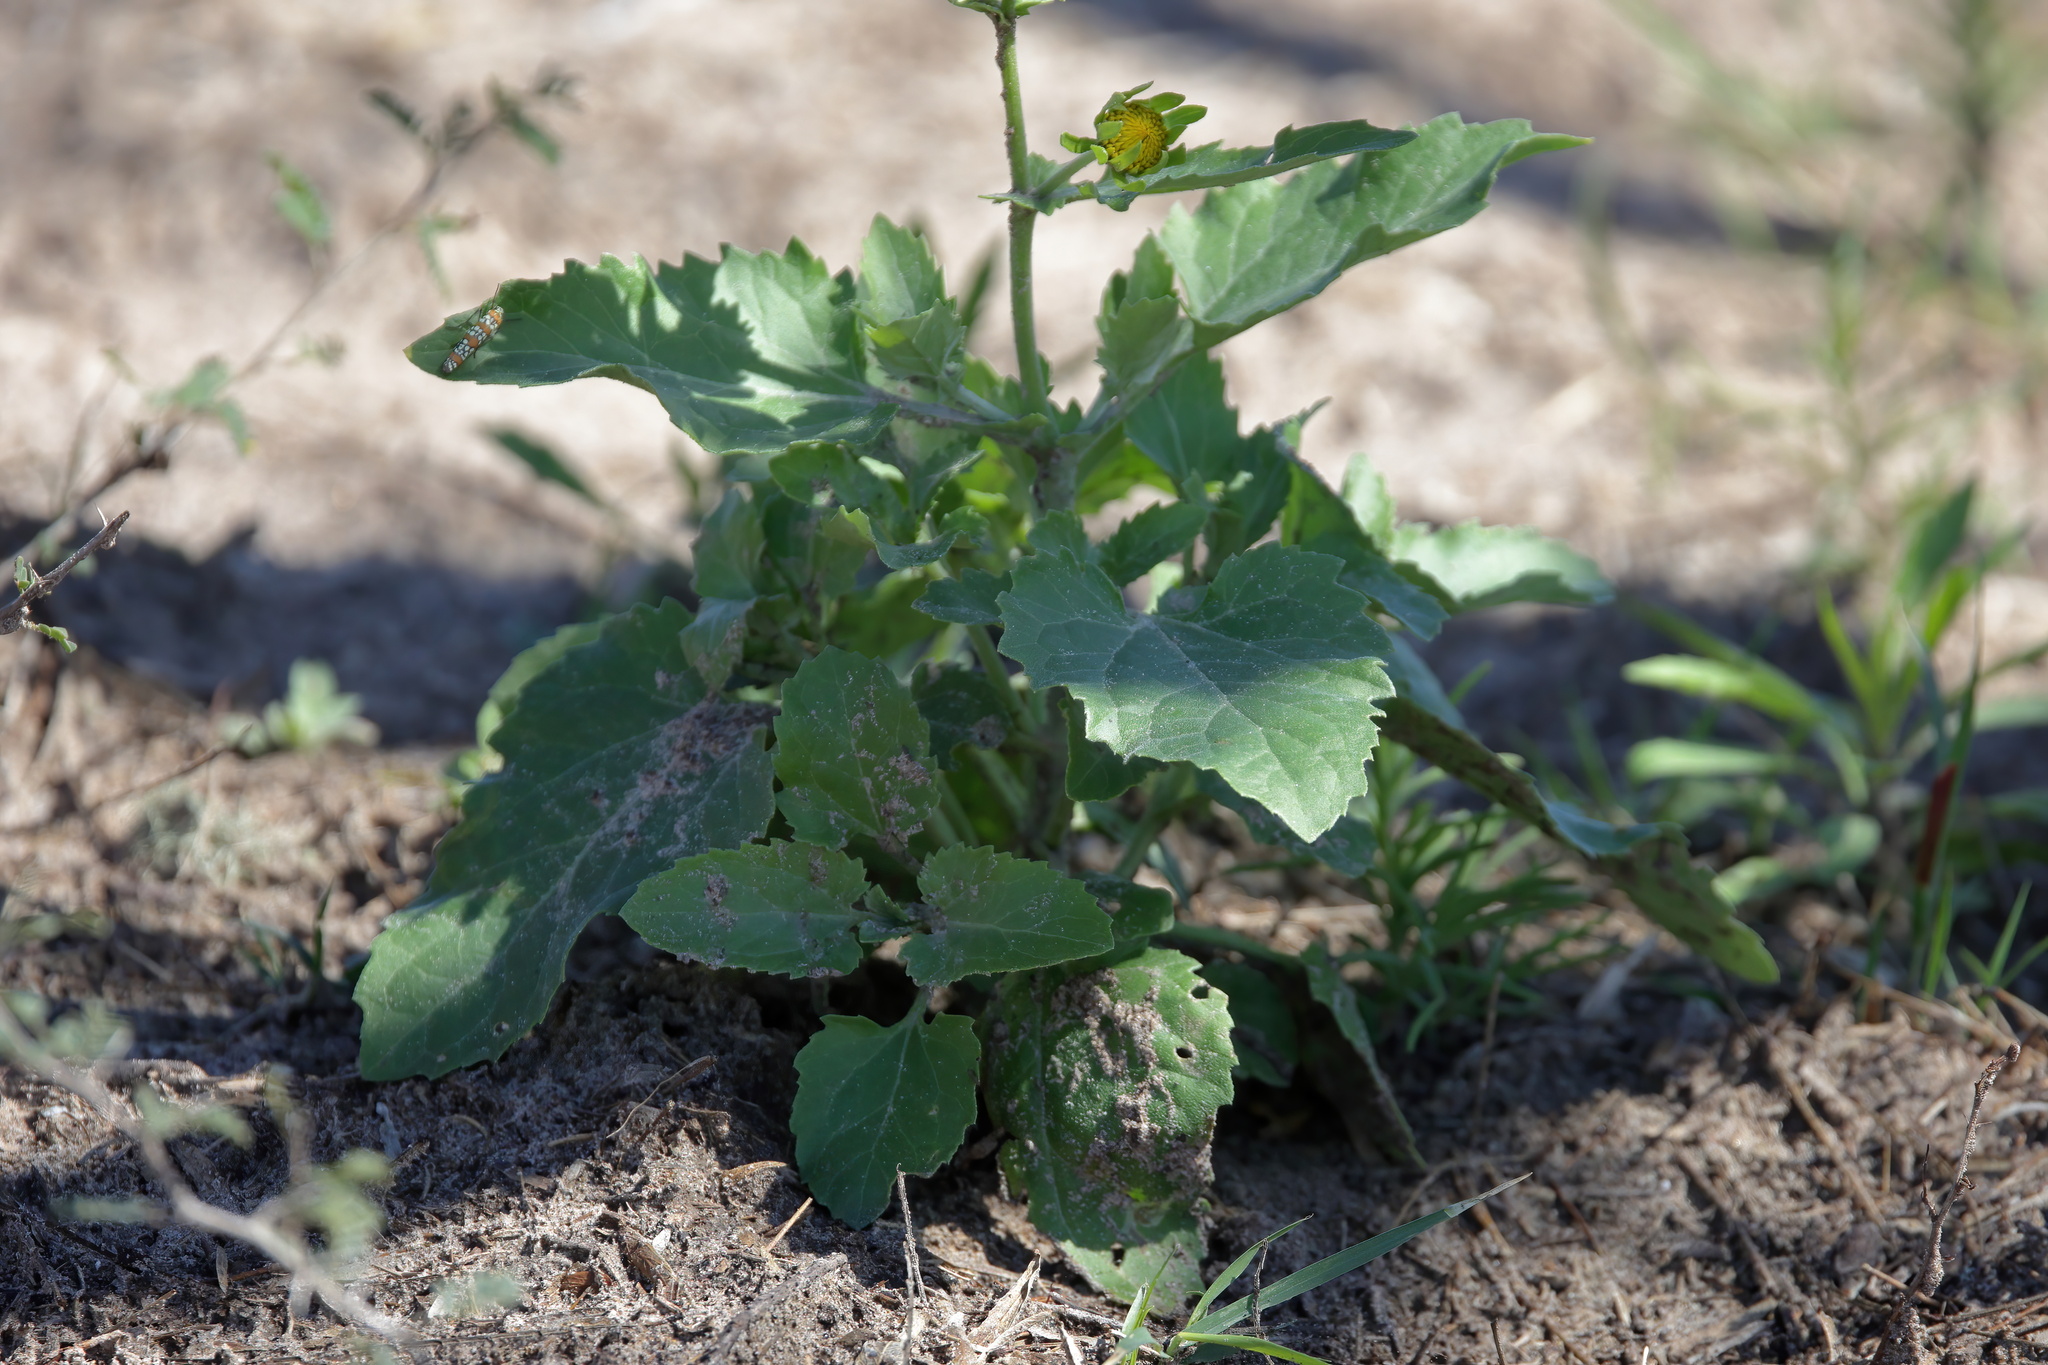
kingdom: Plantae
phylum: Tracheophyta
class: Magnoliopsida
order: Asterales
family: Asteraceae
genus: Verbesina
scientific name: Verbesina encelioides
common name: Golden crownbeard
